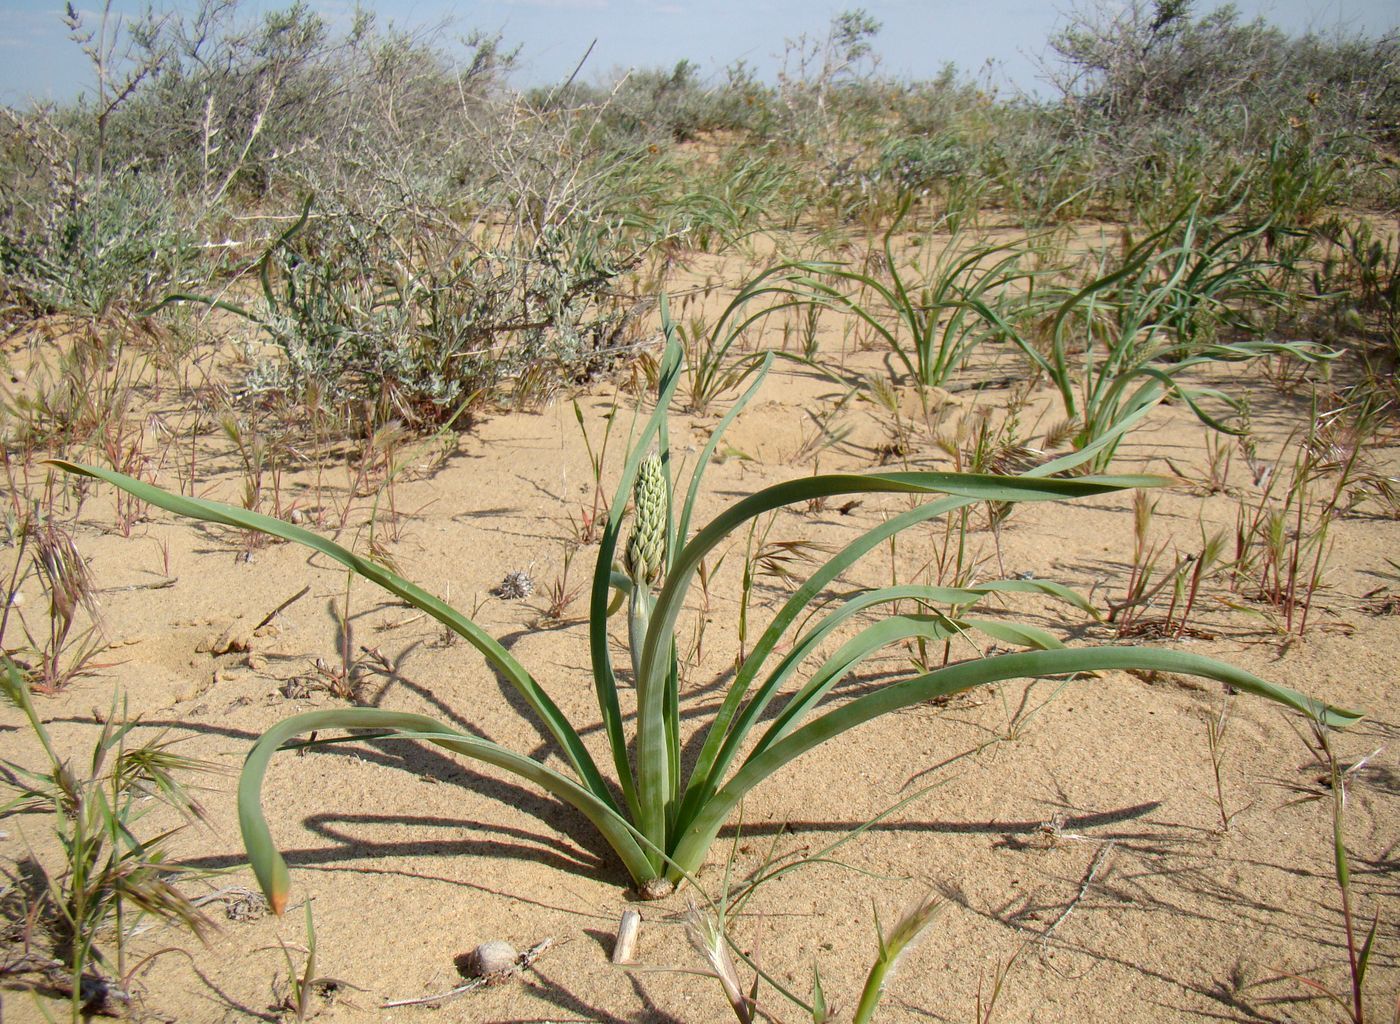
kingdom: Plantae
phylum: Tracheophyta
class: Liliopsida
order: Asparagales
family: Asphodelaceae
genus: Eremurus
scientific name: Eremurus inderiensis
